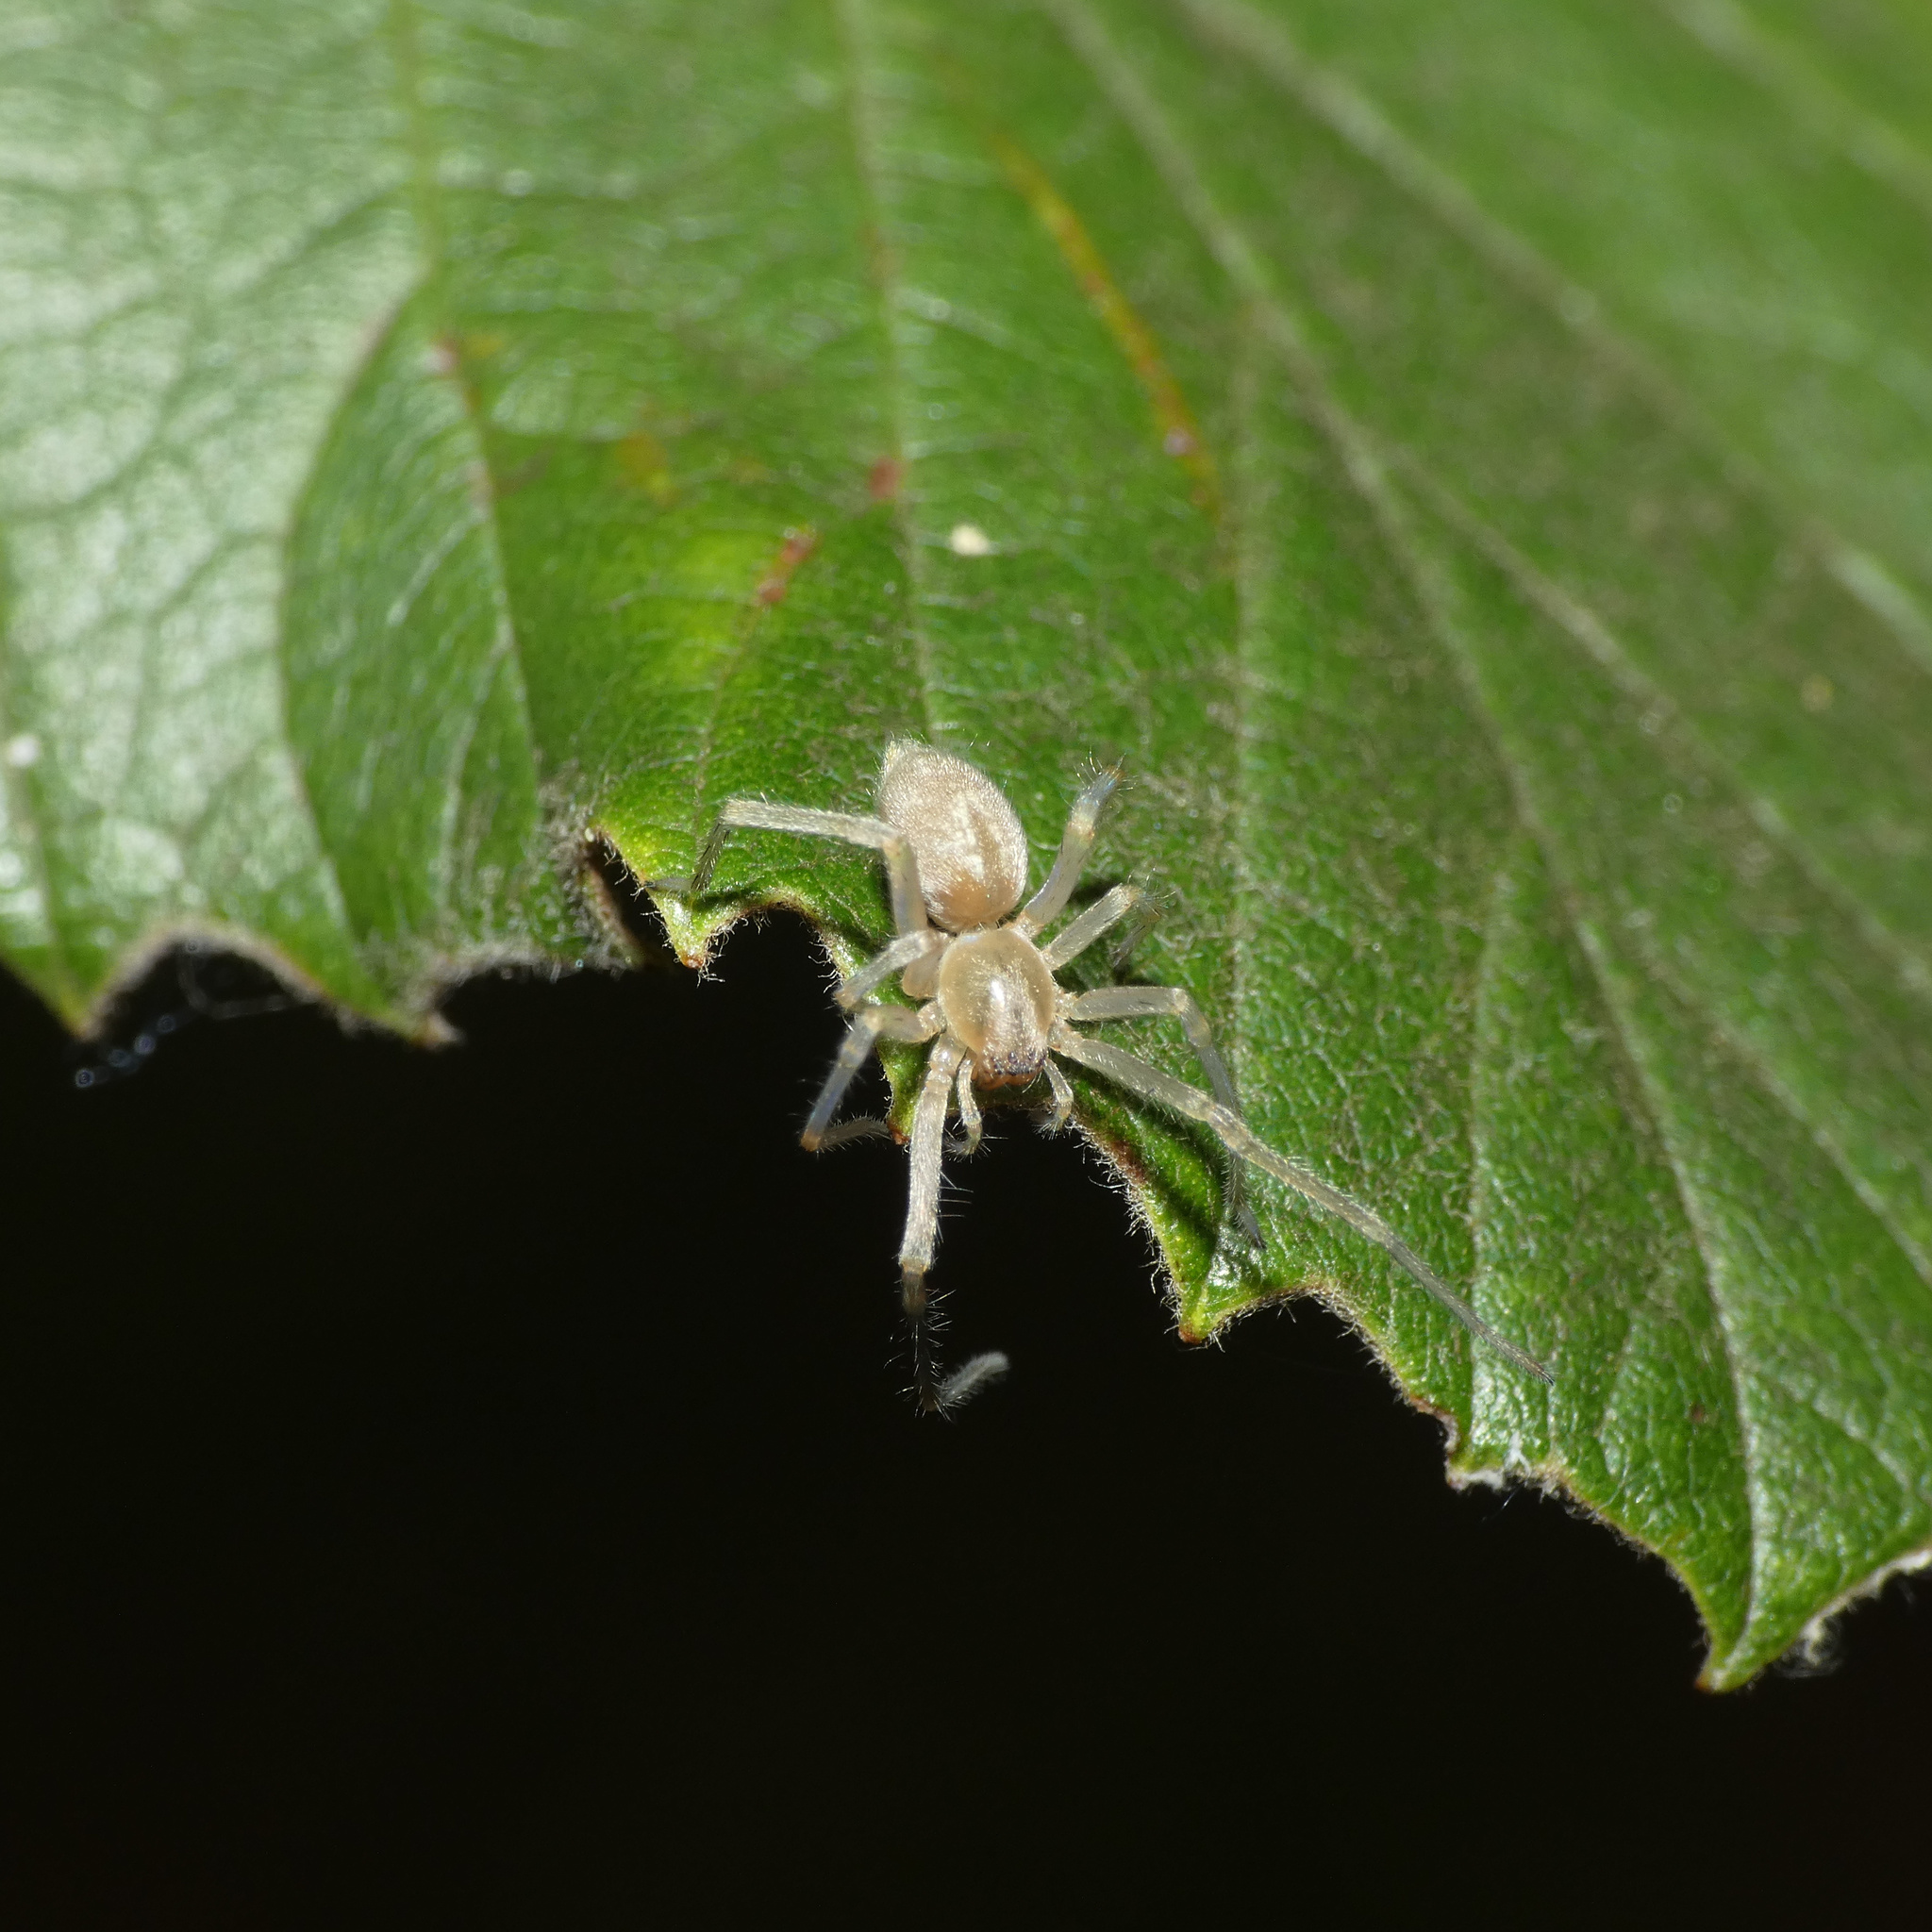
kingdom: Animalia
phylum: Arthropoda
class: Arachnida
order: Araneae
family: Cheiracanthiidae
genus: Cheiracanthium
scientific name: Cheiracanthium furculatum
